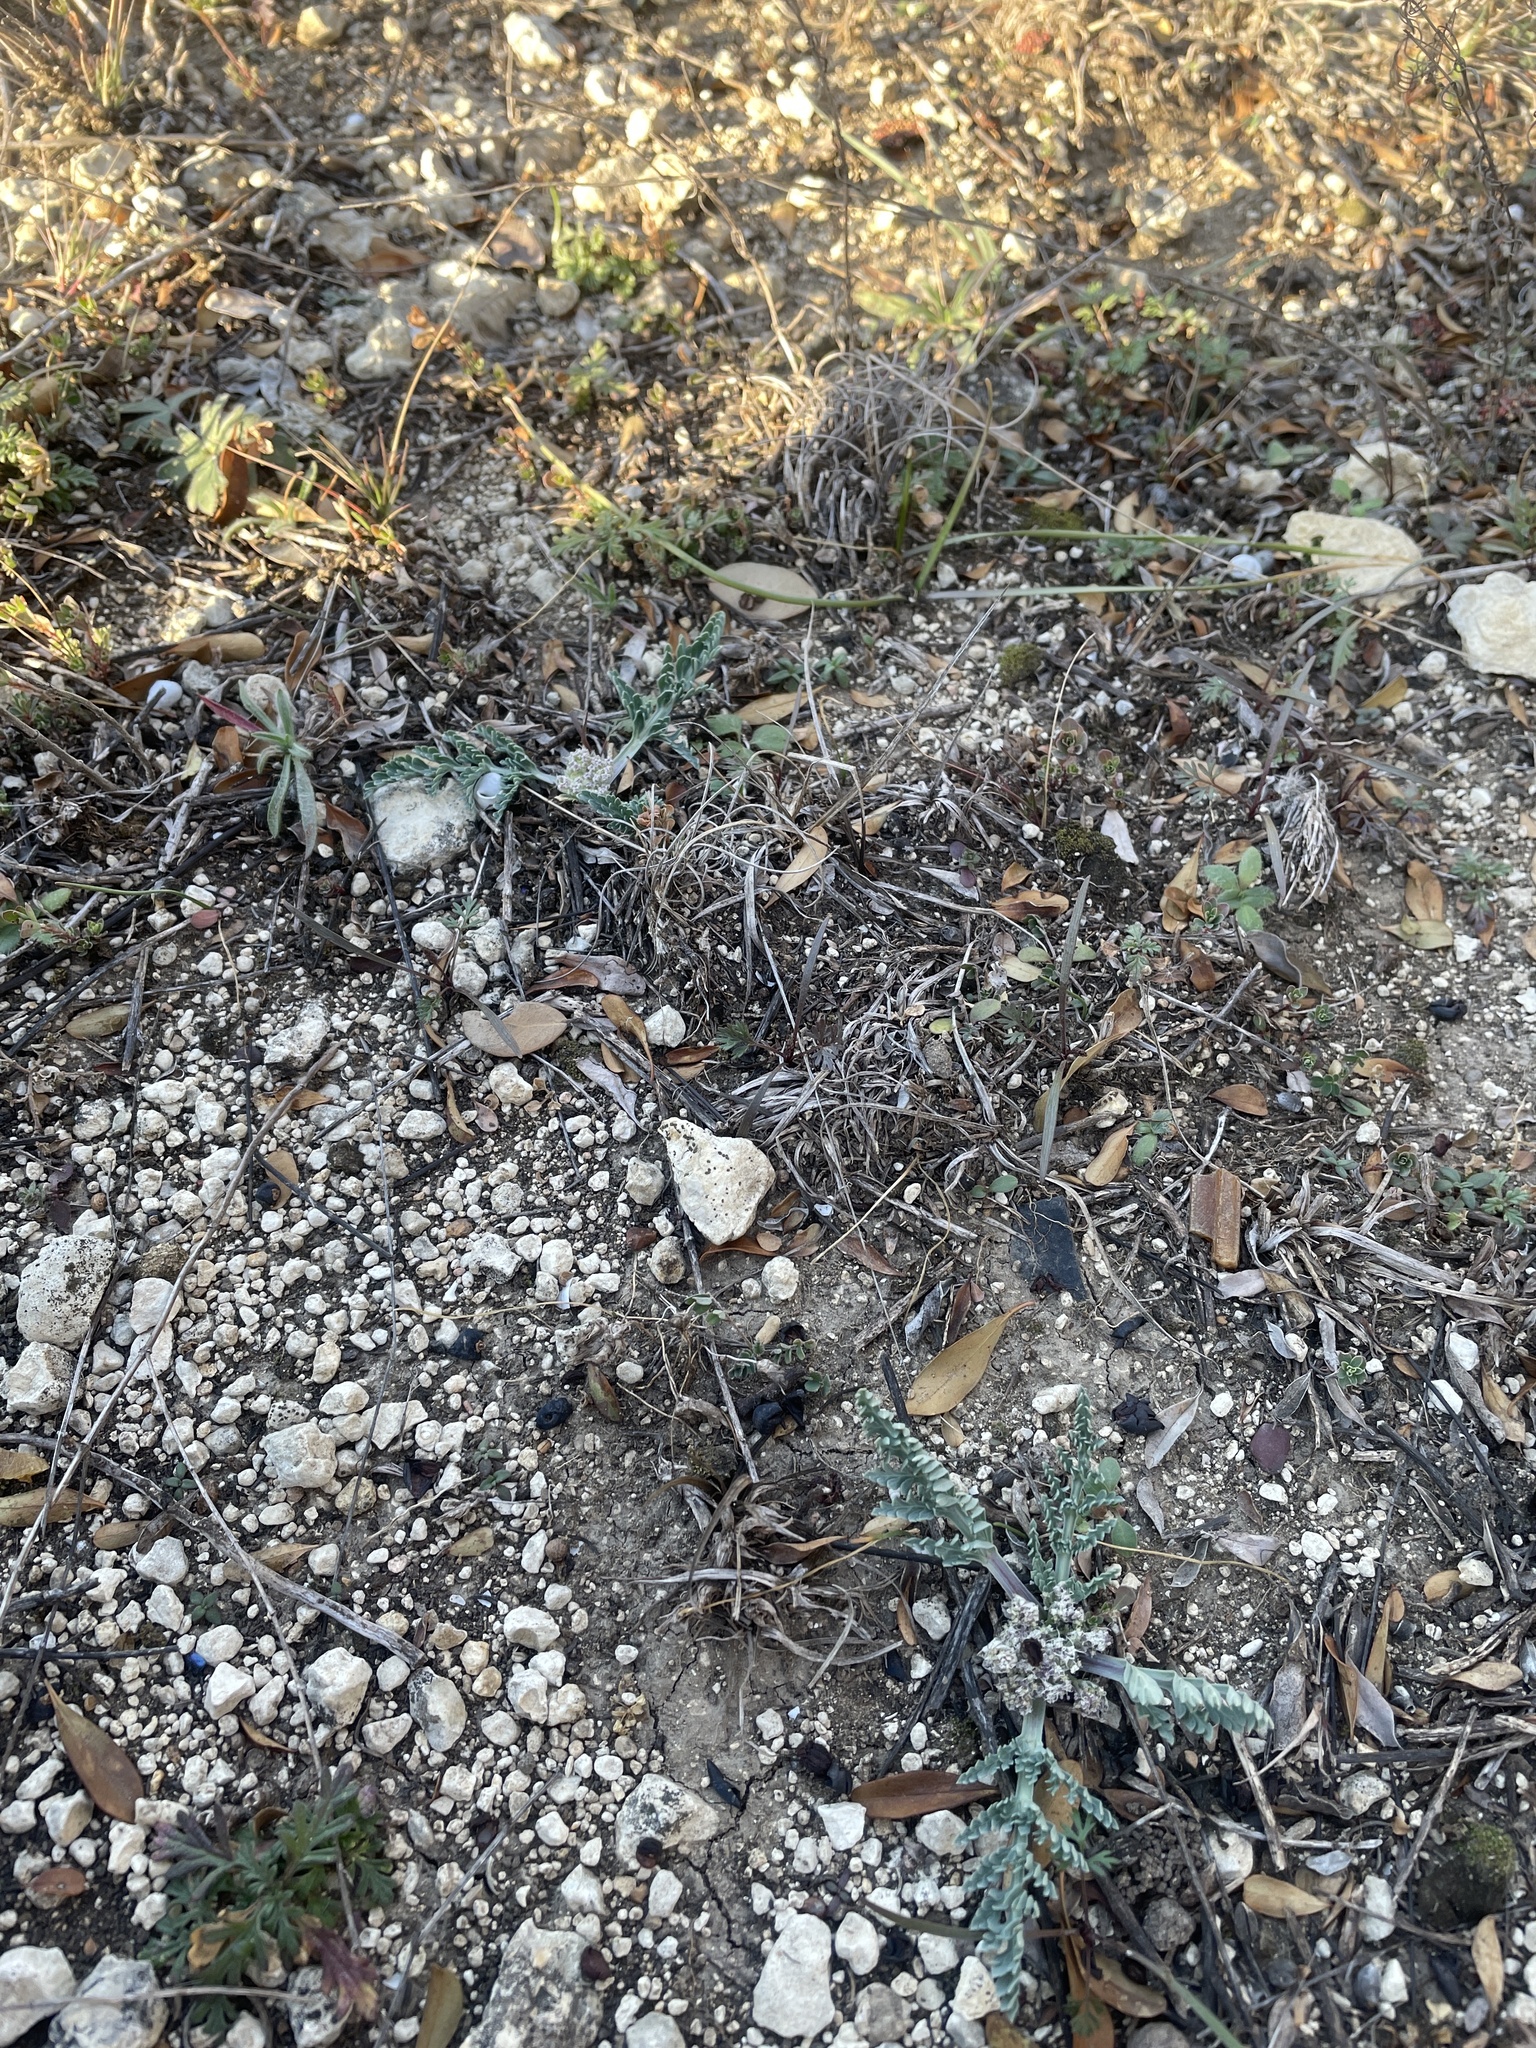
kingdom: Plantae
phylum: Tracheophyta
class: Magnoliopsida
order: Apiales
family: Apiaceae
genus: Vesper
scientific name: Vesper macrorhizus
